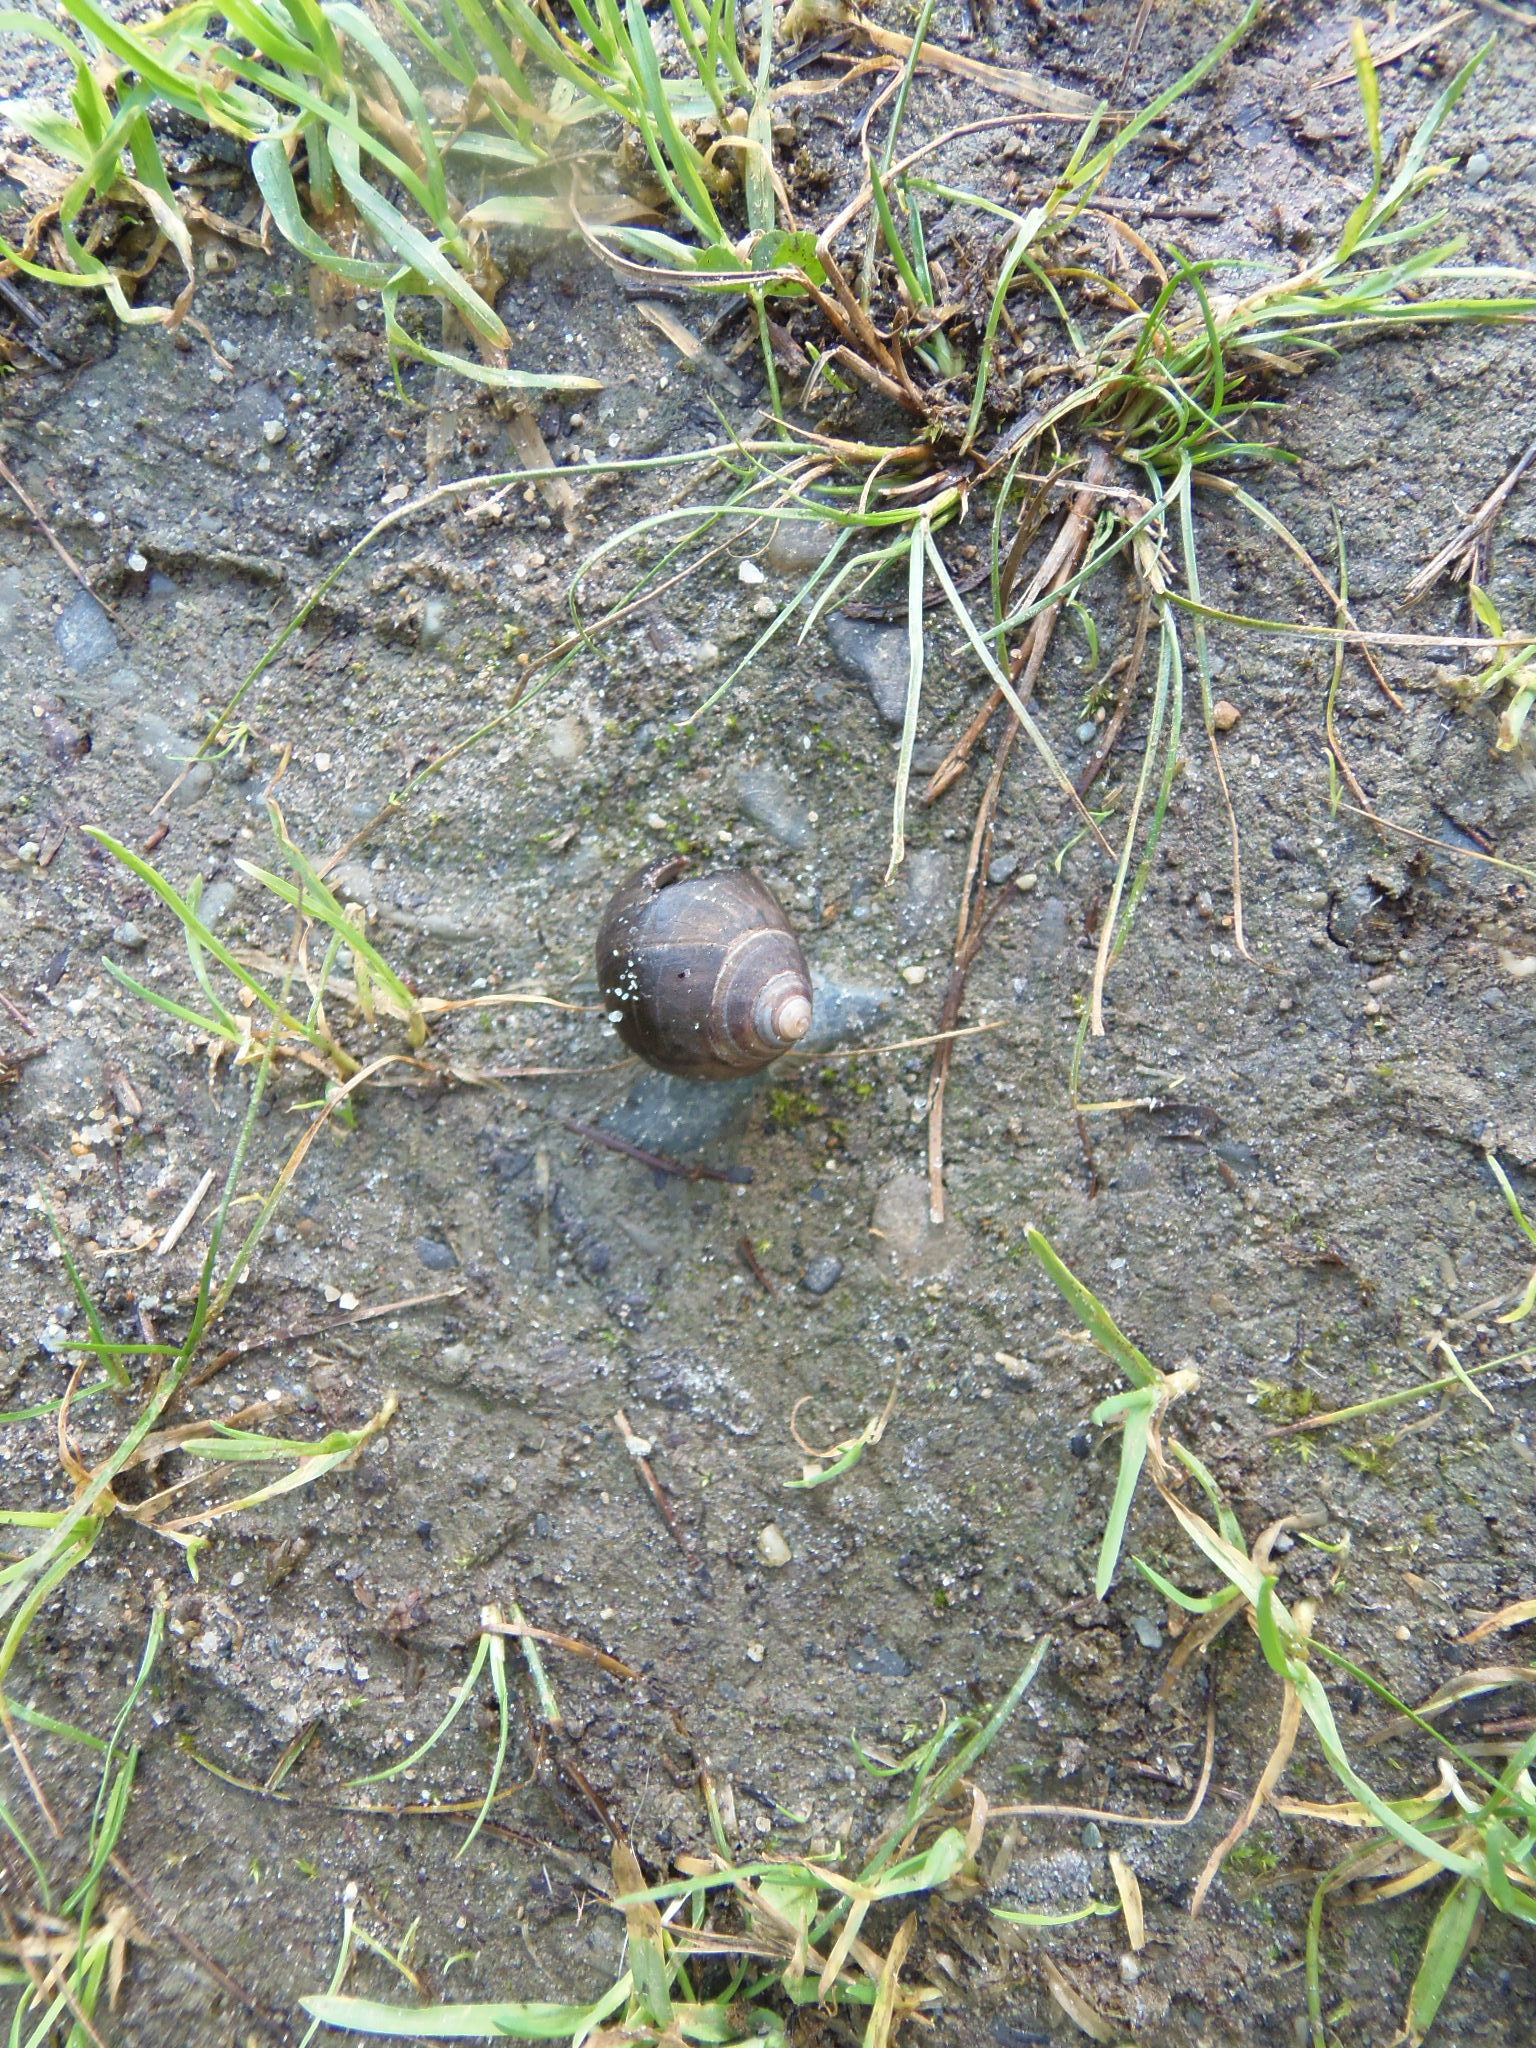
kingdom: Animalia
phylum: Mollusca
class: Gastropoda
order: Littorinimorpha
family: Littorinidae
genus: Littorina
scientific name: Littorina littorea
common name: Common periwinkle
